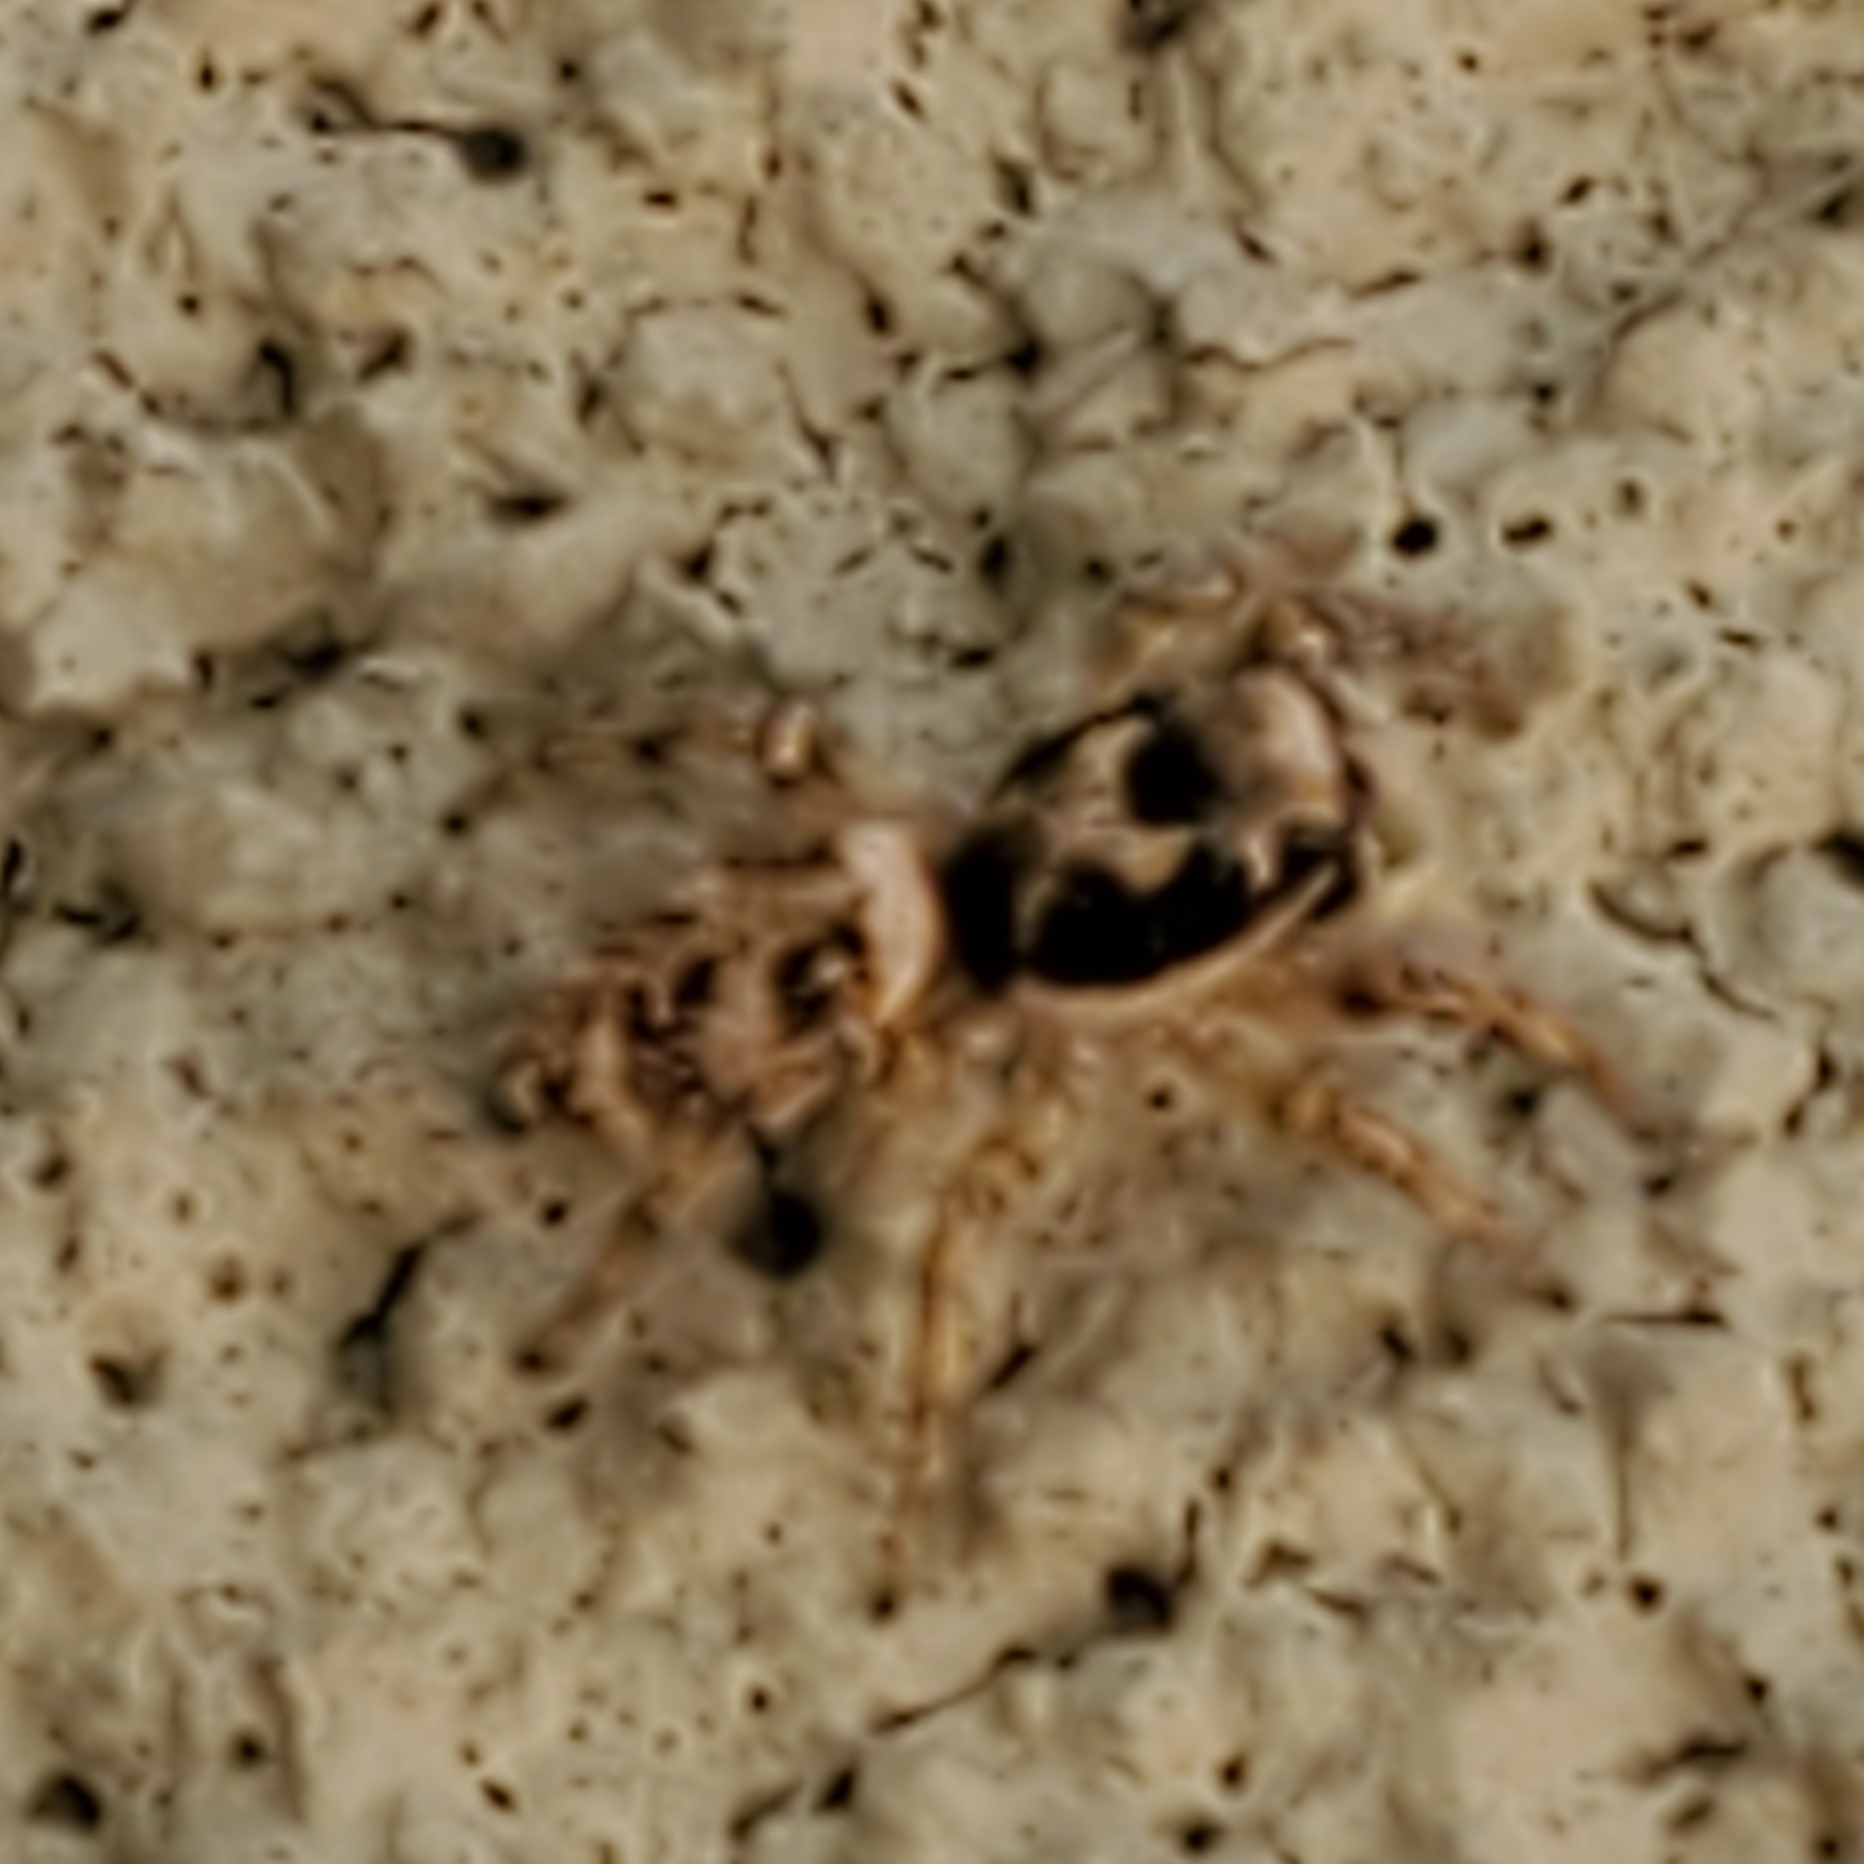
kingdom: Animalia
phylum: Arthropoda
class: Arachnida
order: Araneae
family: Salticidae
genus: Salticus
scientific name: Salticus scenicus
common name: Zebra jumper
